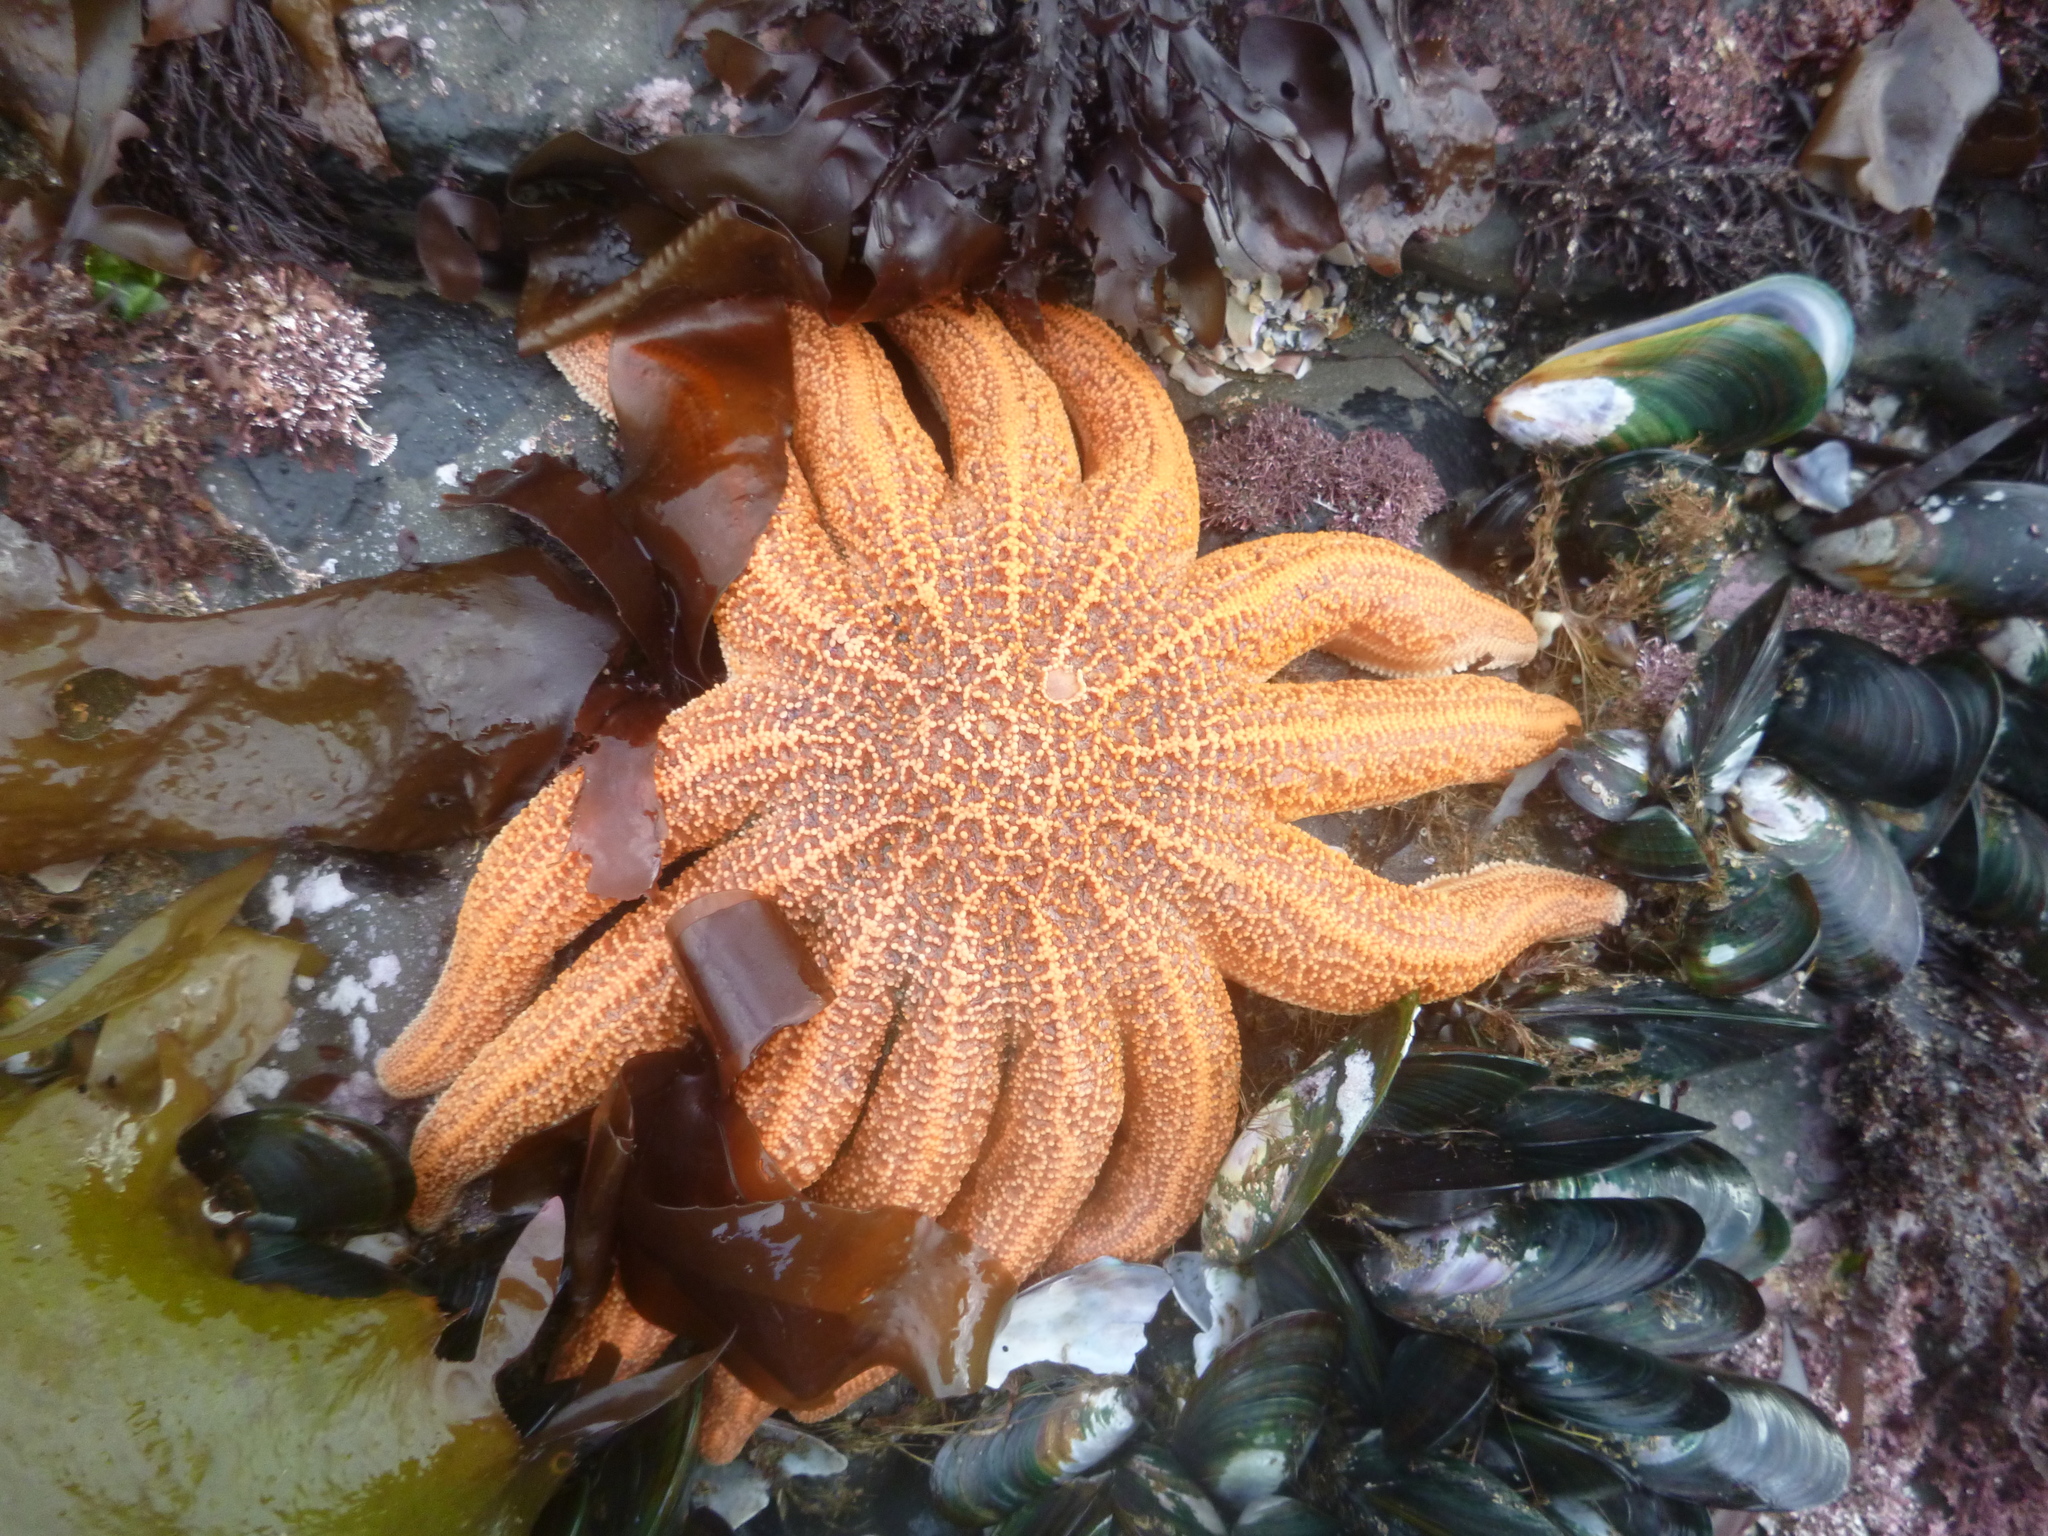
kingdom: Animalia
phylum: Echinodermata
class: Asteroidea
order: Forcipulatida
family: Stichasteridae
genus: Stichaster
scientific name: Stichaster australis
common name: Reef starfish
